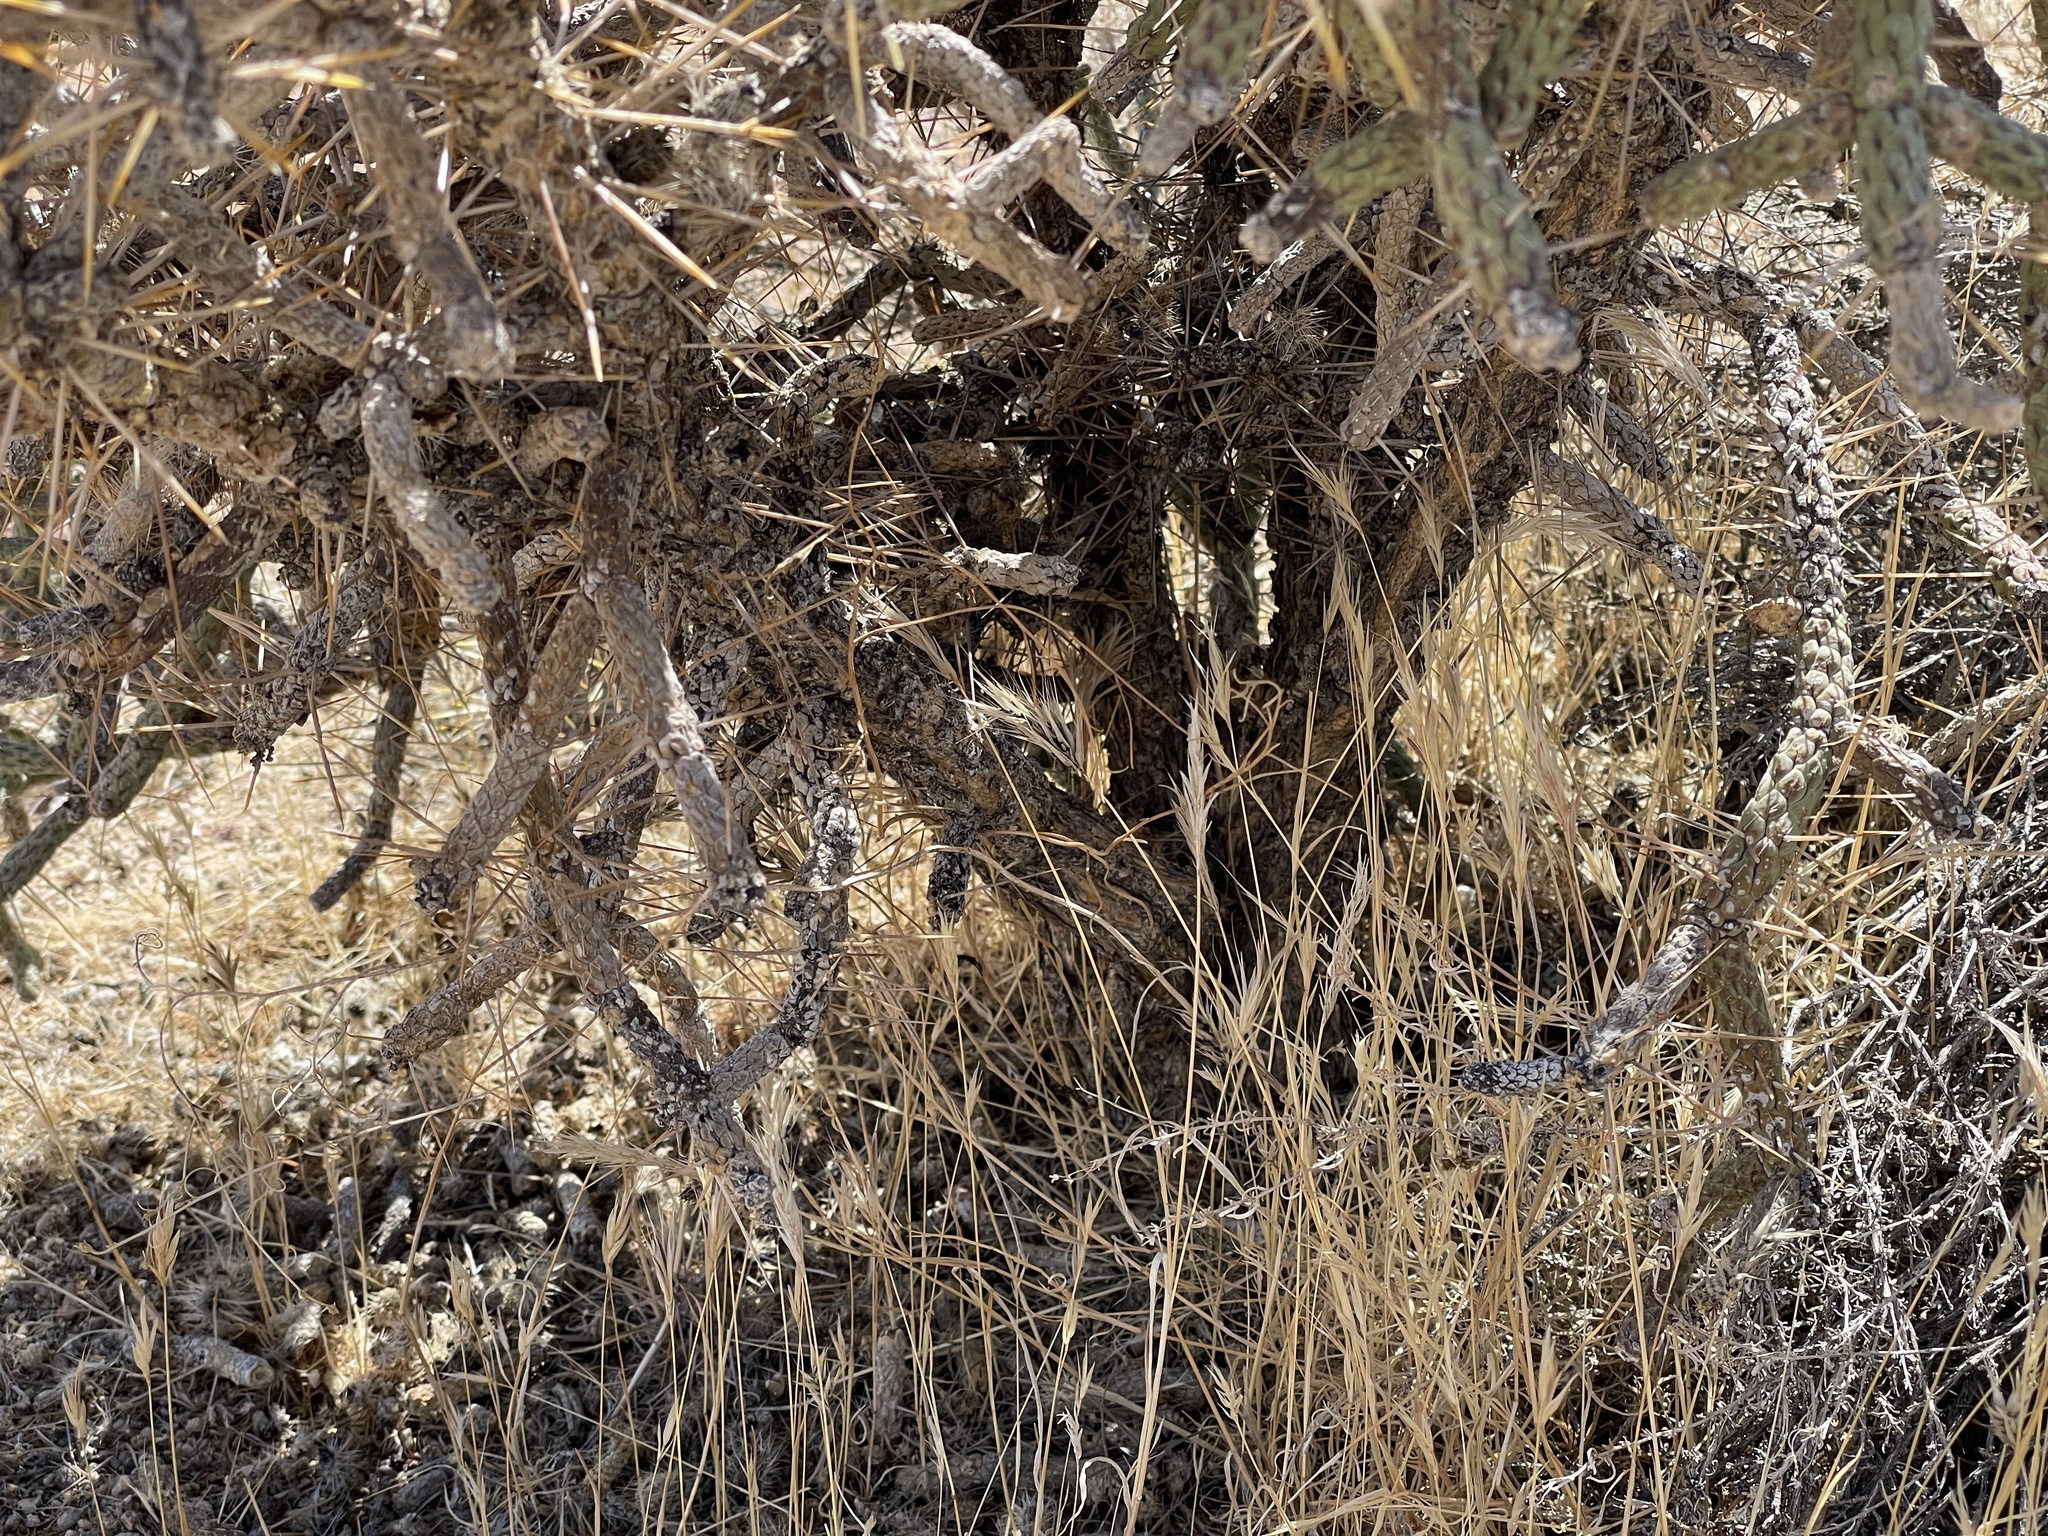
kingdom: Plantae
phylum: Tracheophyta
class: Magnoliopsida
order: Caryophyllales
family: Cactaceae
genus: Cylindropuntia
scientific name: Cylindropuntia ramosissima
